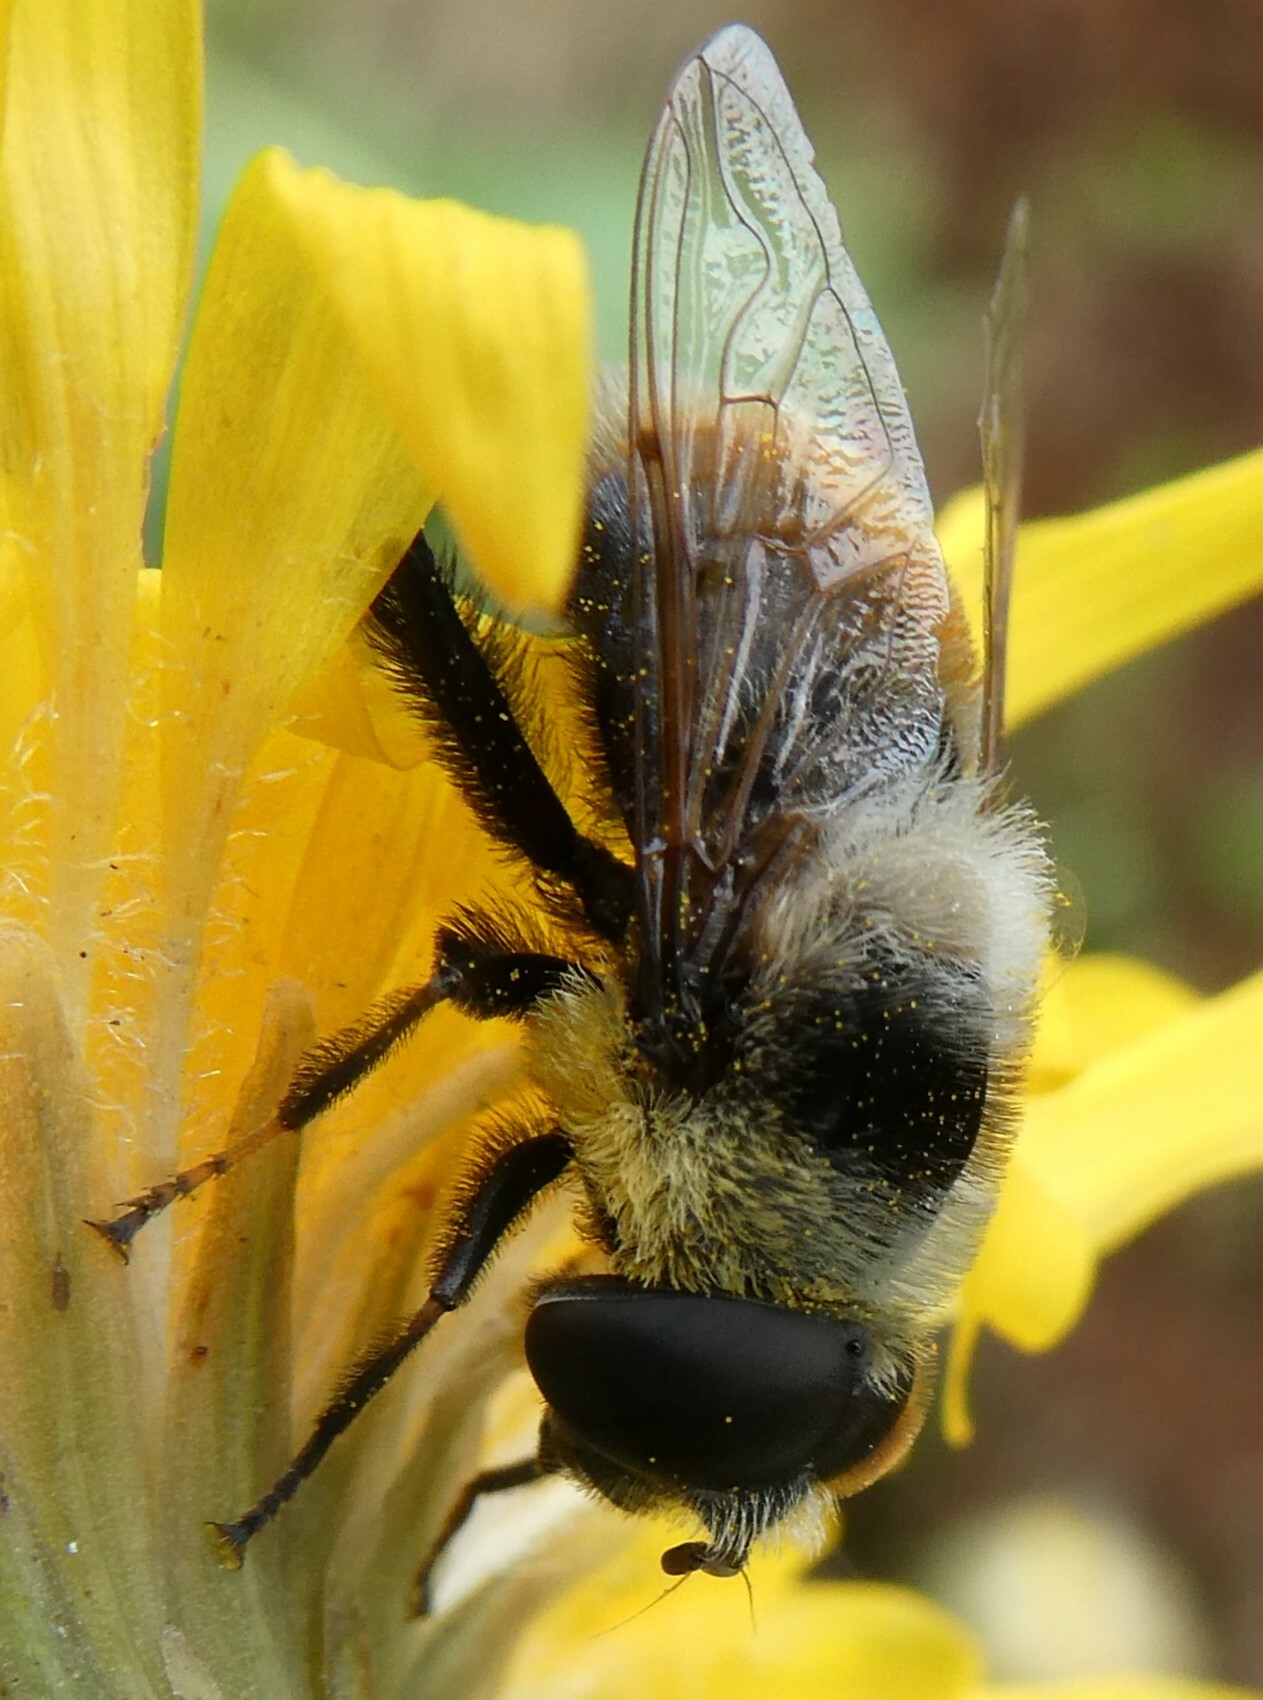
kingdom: Animalia
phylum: Arthropoda
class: Insecta
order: Diptera
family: Syrphidae
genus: Eristalis
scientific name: Eristalis flavipes
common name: Orange-legged drone fly
